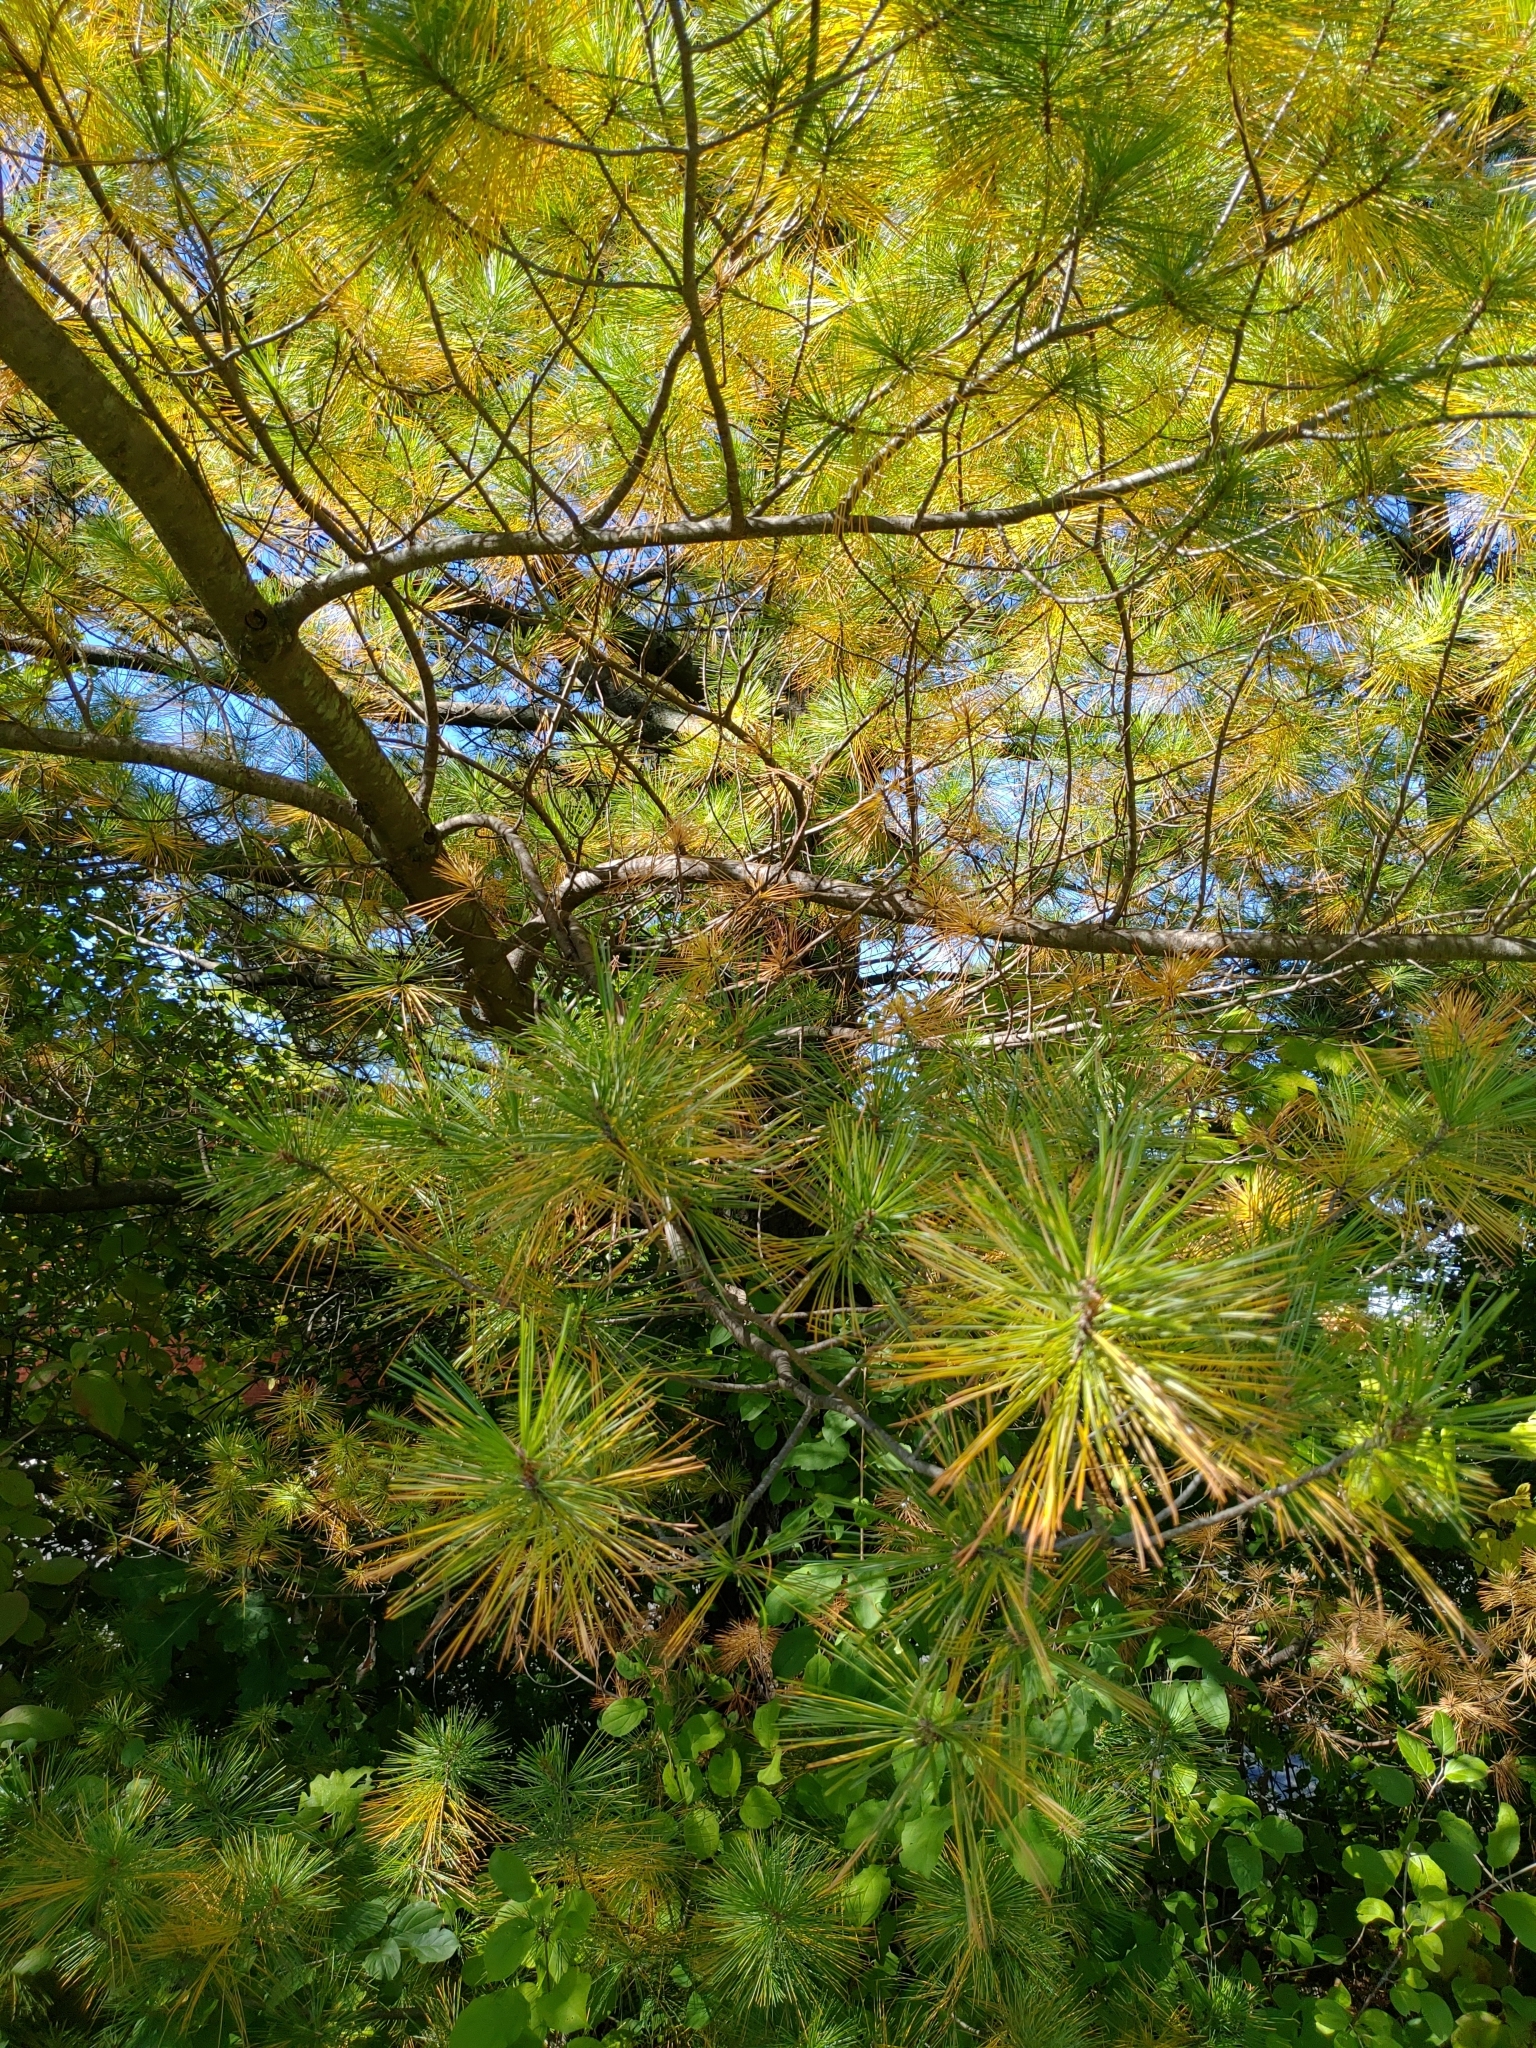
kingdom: Plantae
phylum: Tracheophyta
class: Pinopsida
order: Pinales
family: Pinaceae
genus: Pinus
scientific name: Pinus strobus
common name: Weymouth pine
